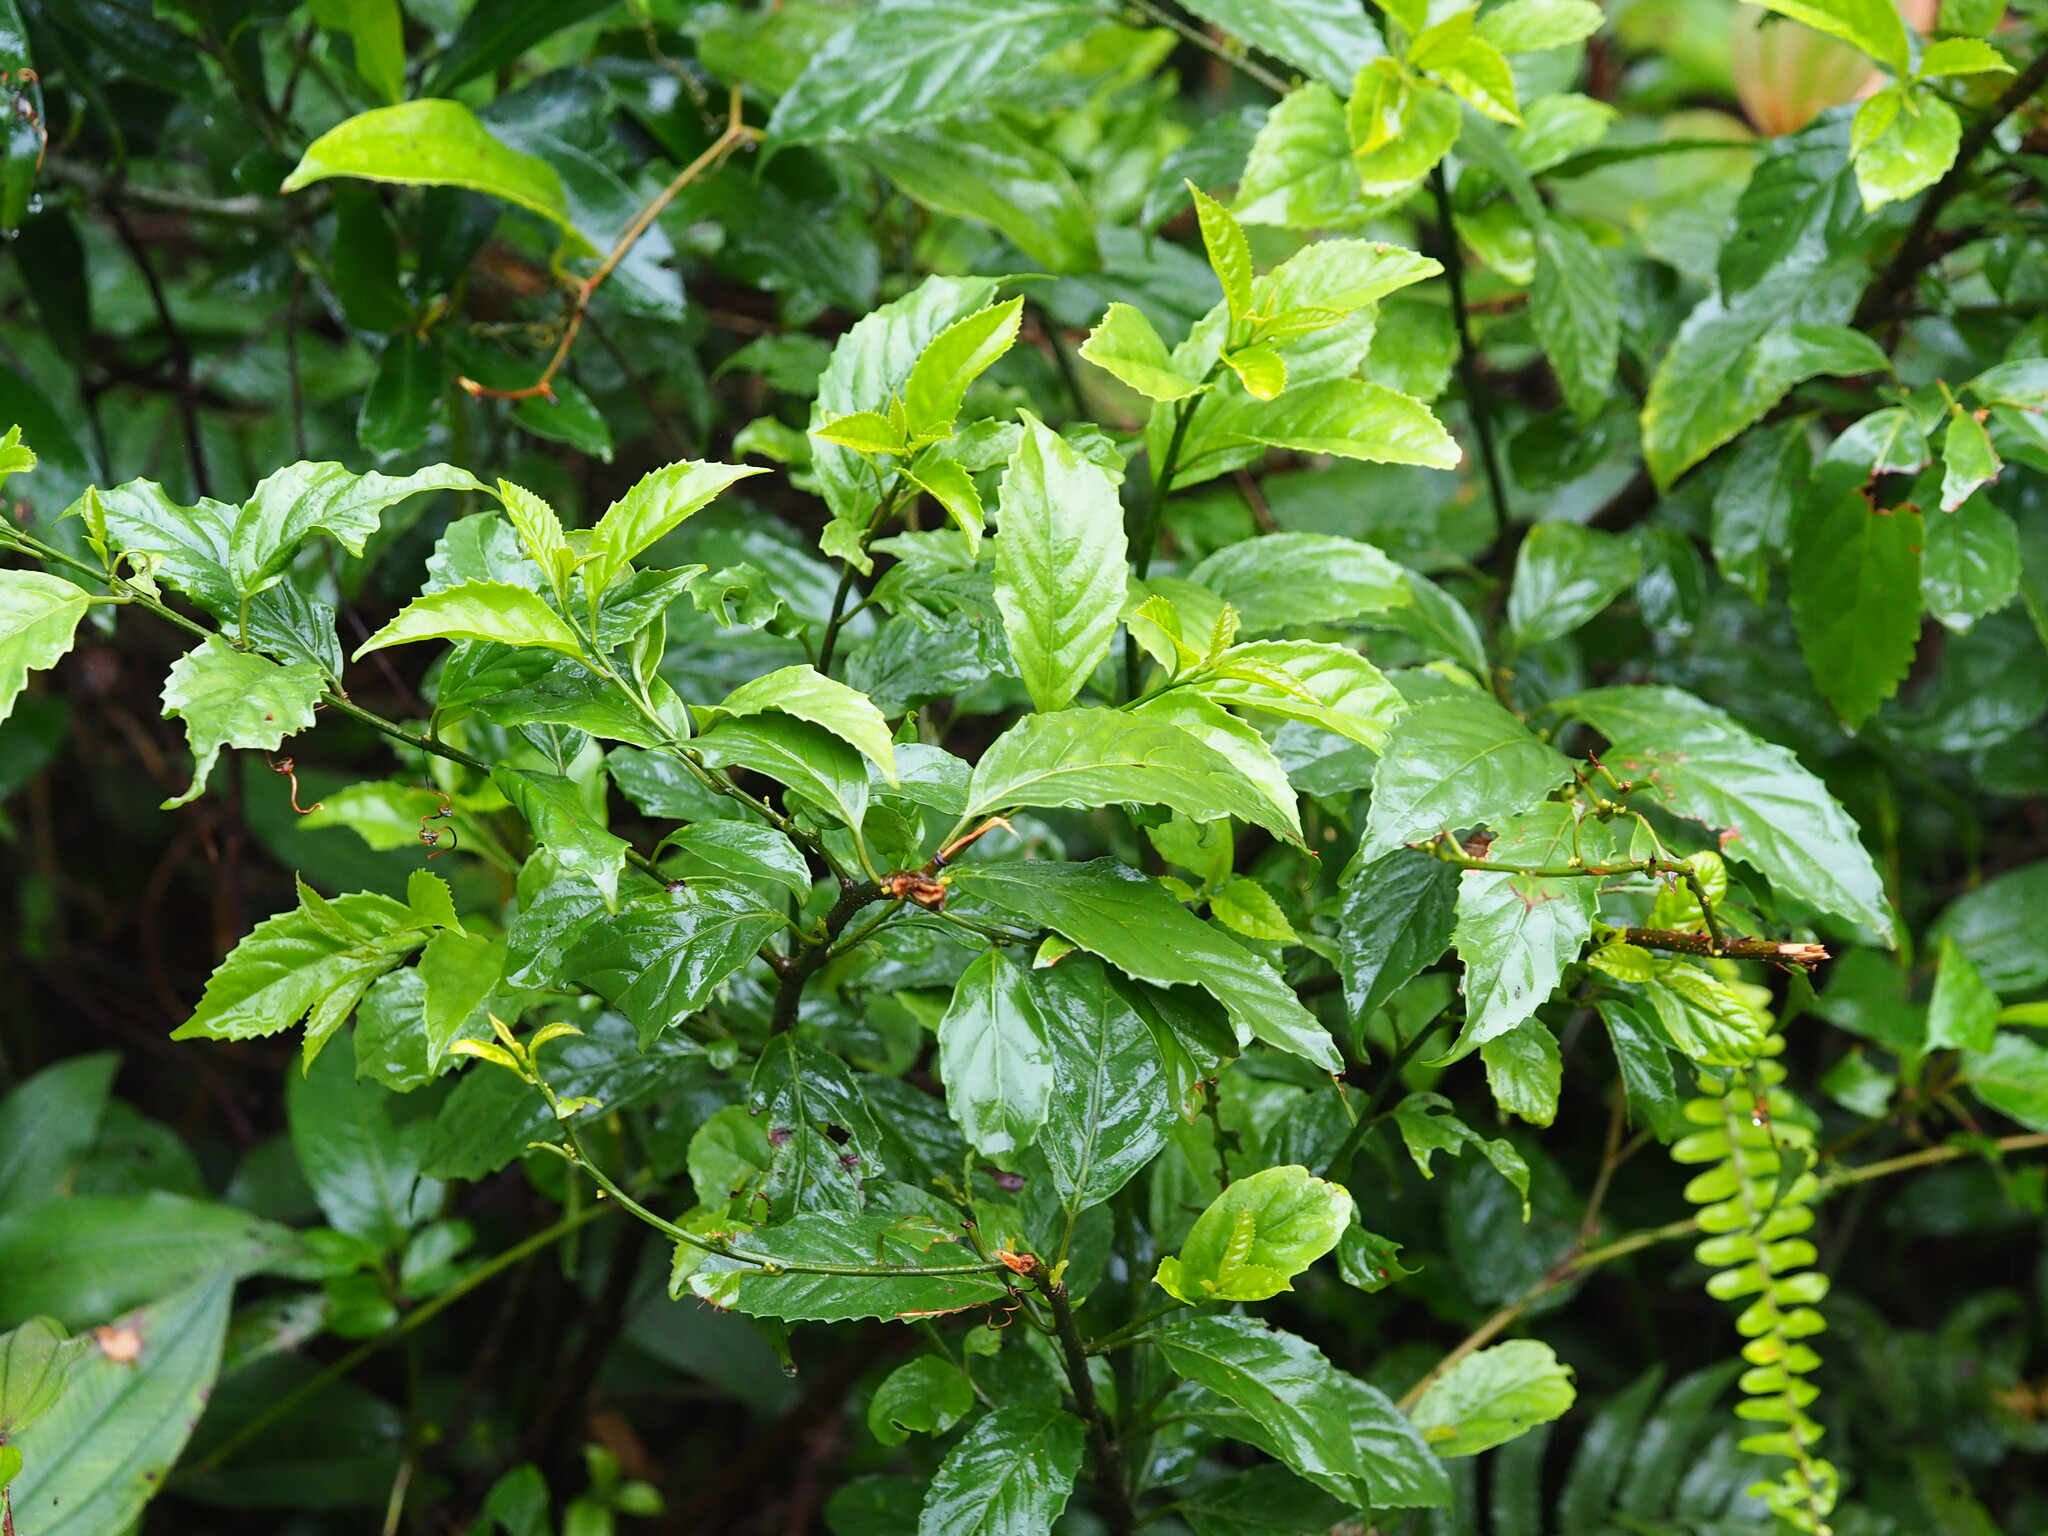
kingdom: Plantae
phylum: Tracheophyta
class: Magnoliopsida
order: Ericales
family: Primulaceae
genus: Maesa
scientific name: Maesa perlaria
